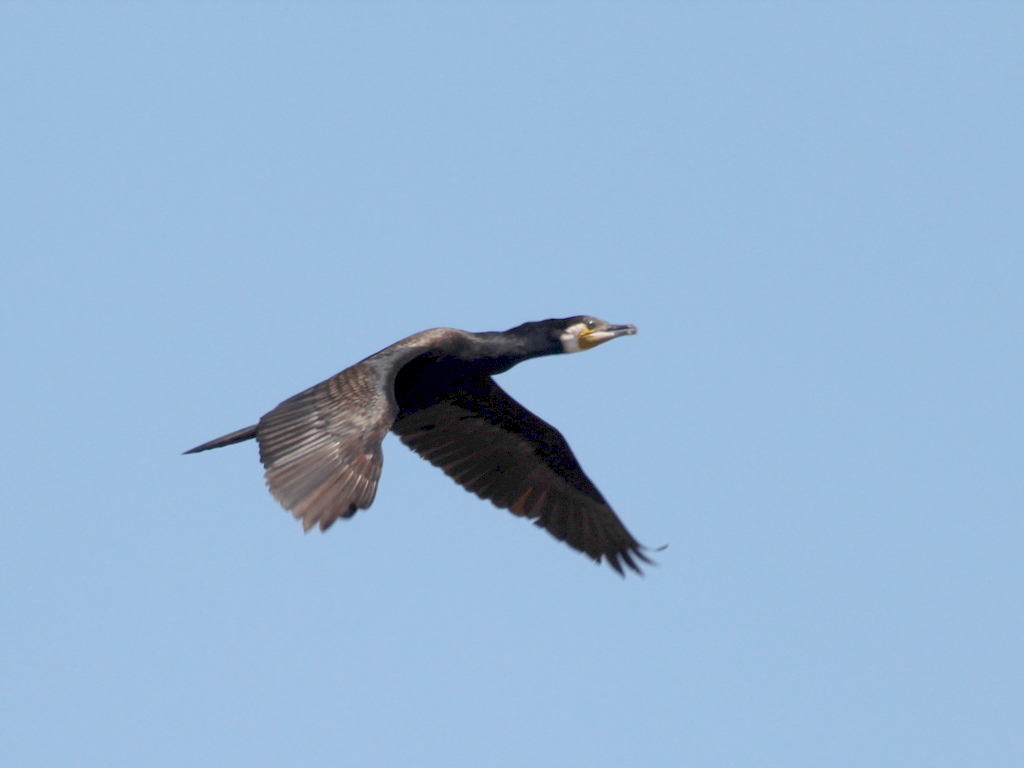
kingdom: Animalia
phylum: Chordata
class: Aves
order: Suliformes
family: Phalacrocoracidae
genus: Phalacrocorax
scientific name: Phalacrocorax carbo
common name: Great cormorant
